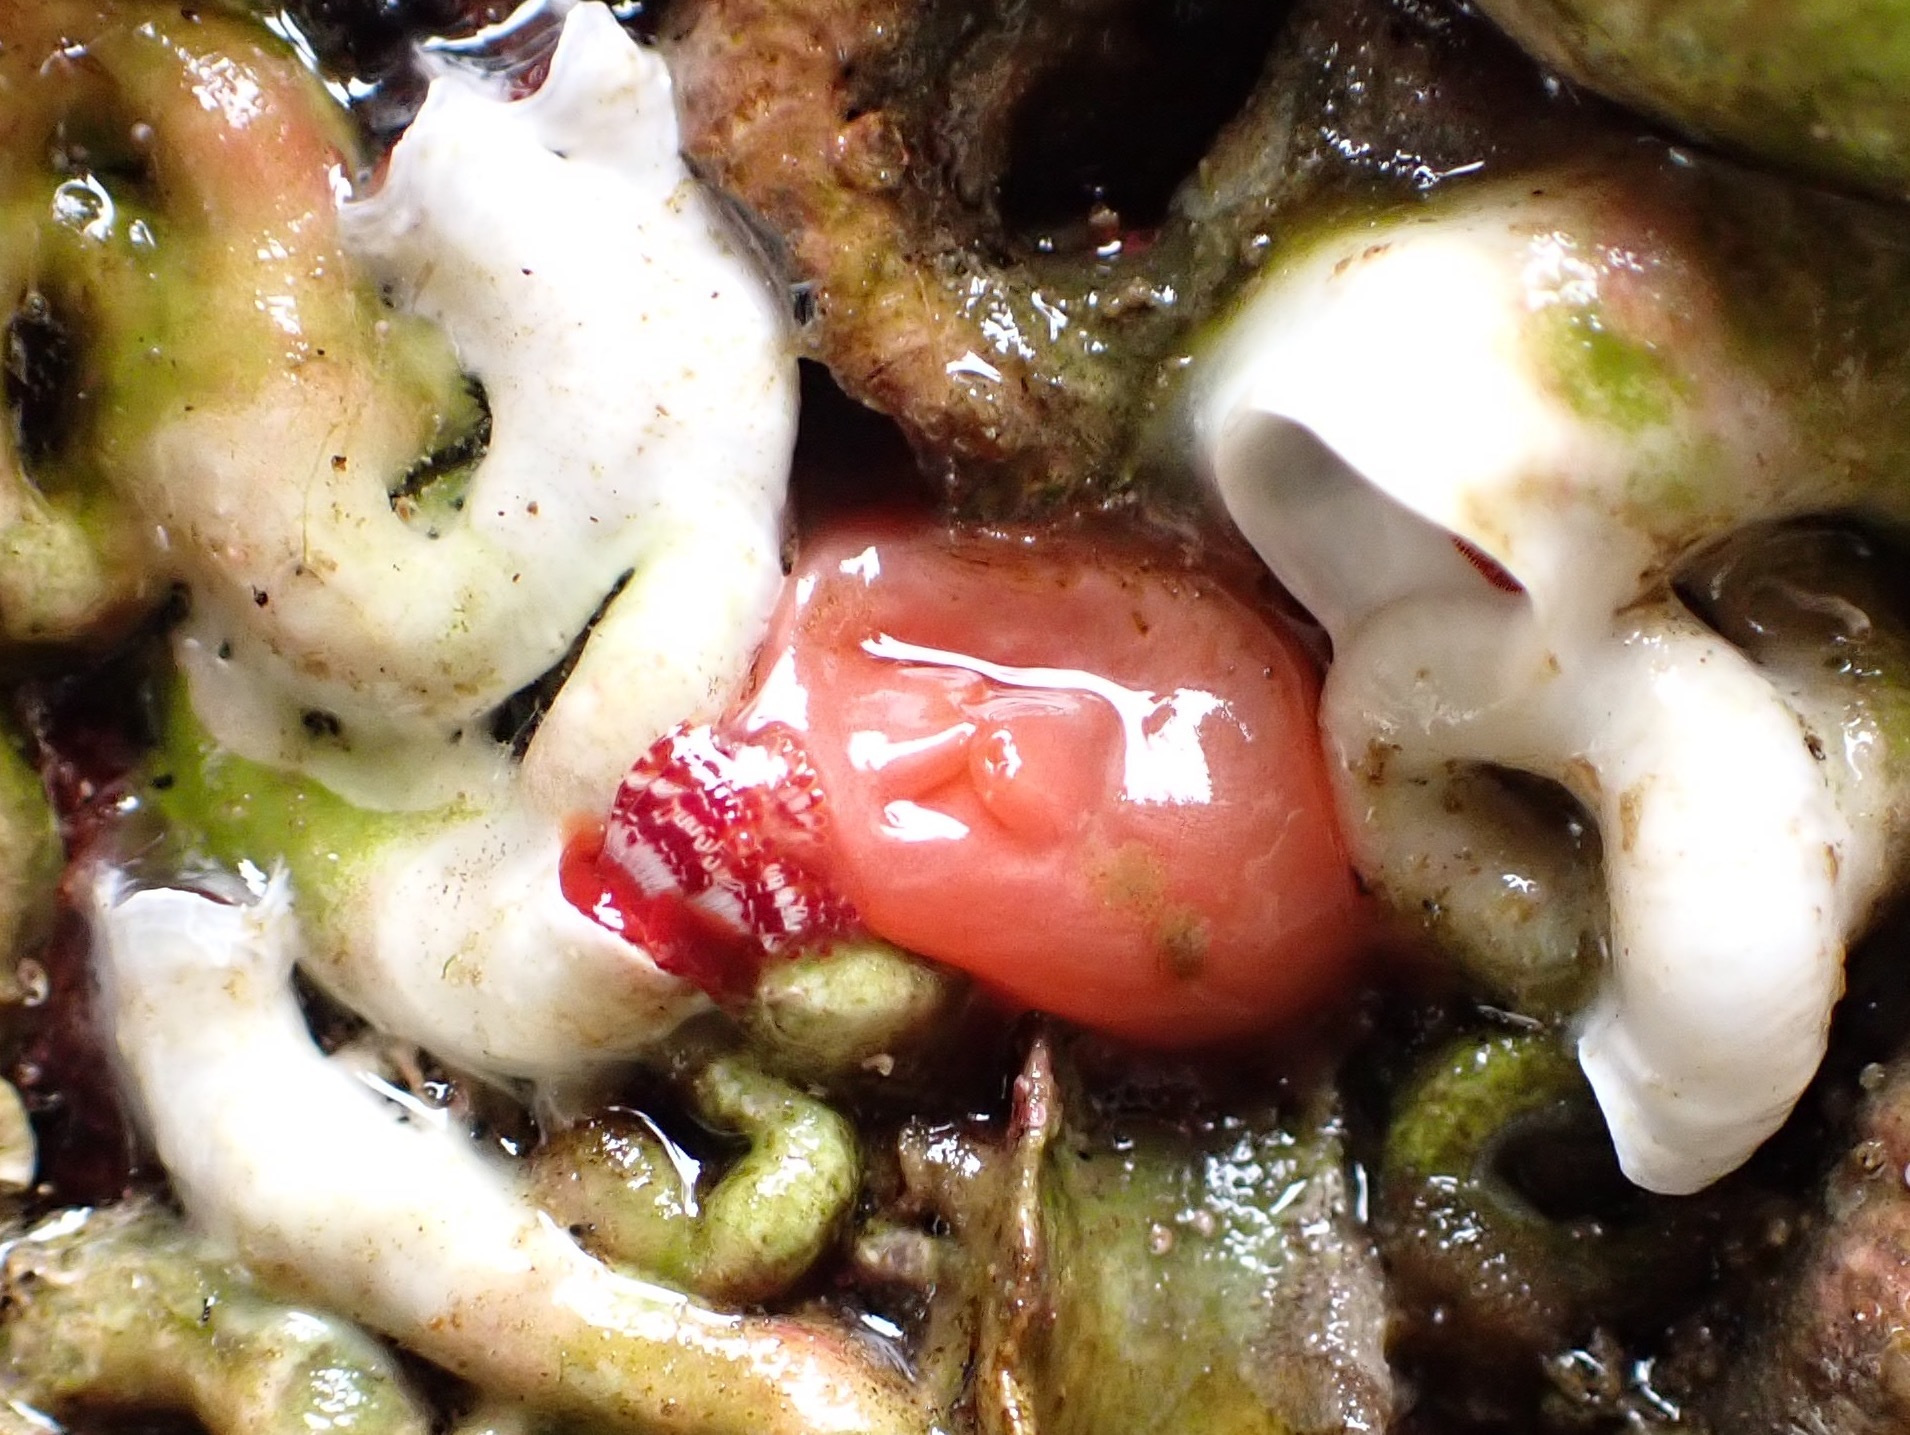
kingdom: Animalia
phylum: Chordata
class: Ascidiacea
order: Stolidobranchia
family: Styelidae
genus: Cnemidocarpa
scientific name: Cnemidocarpa finmarkiensis
